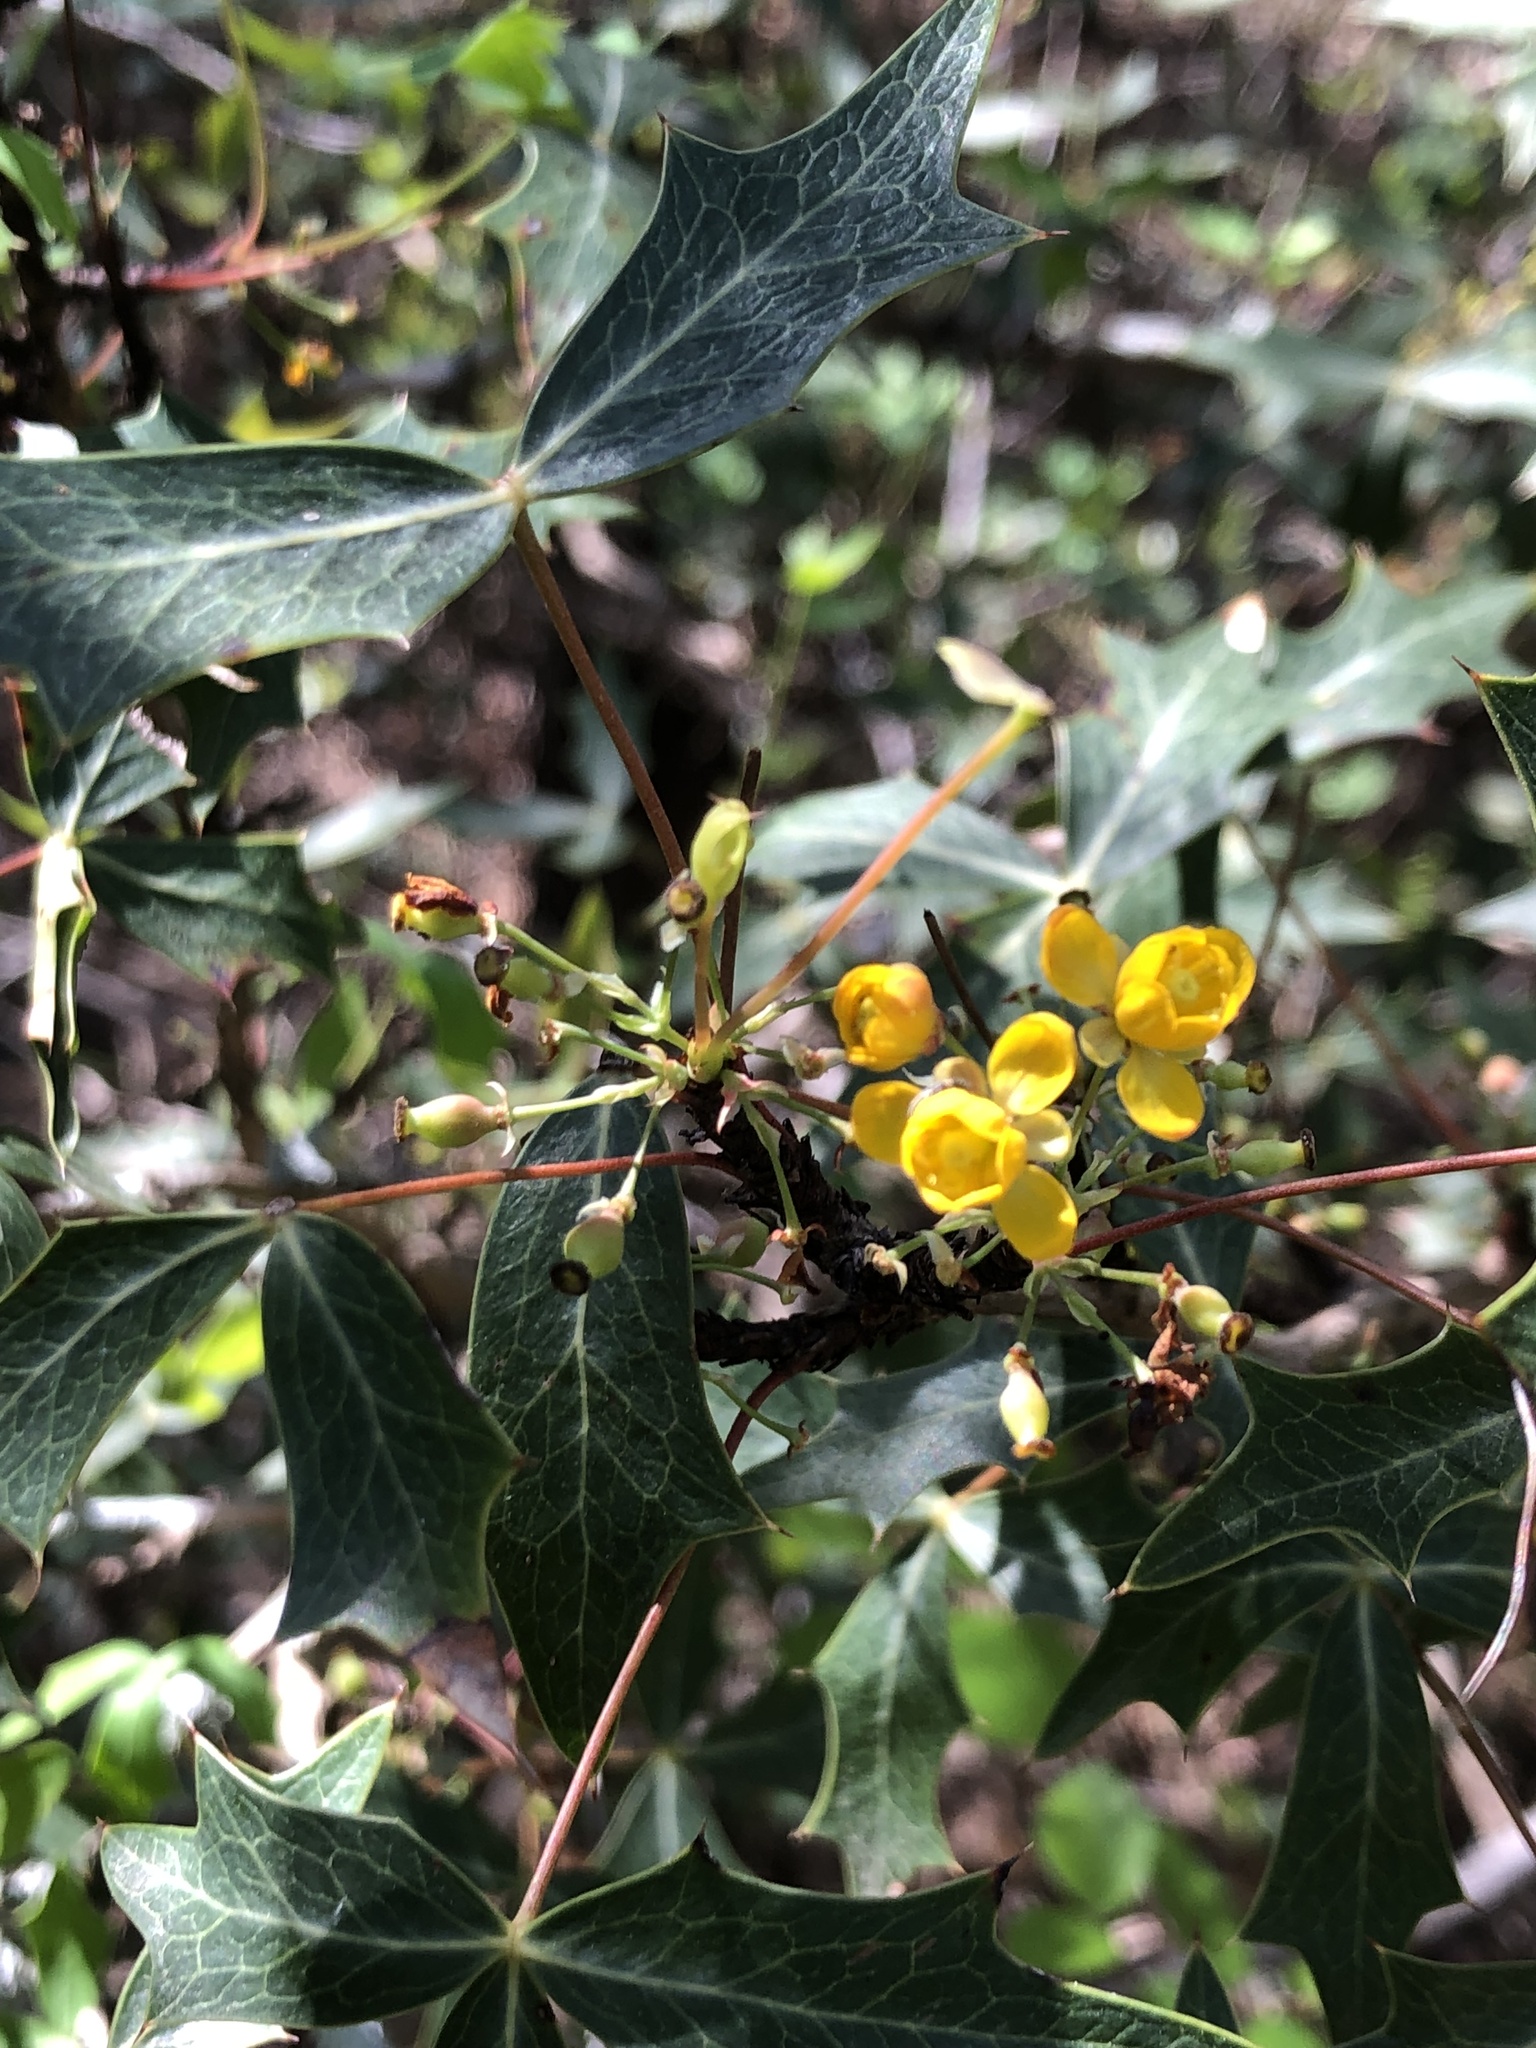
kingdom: Plantae
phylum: Tracheophyta
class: Magnoliopsida
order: Ranunculales
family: Berberidaceae
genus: Alloberberis
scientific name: Alloberberis trifoliolata
